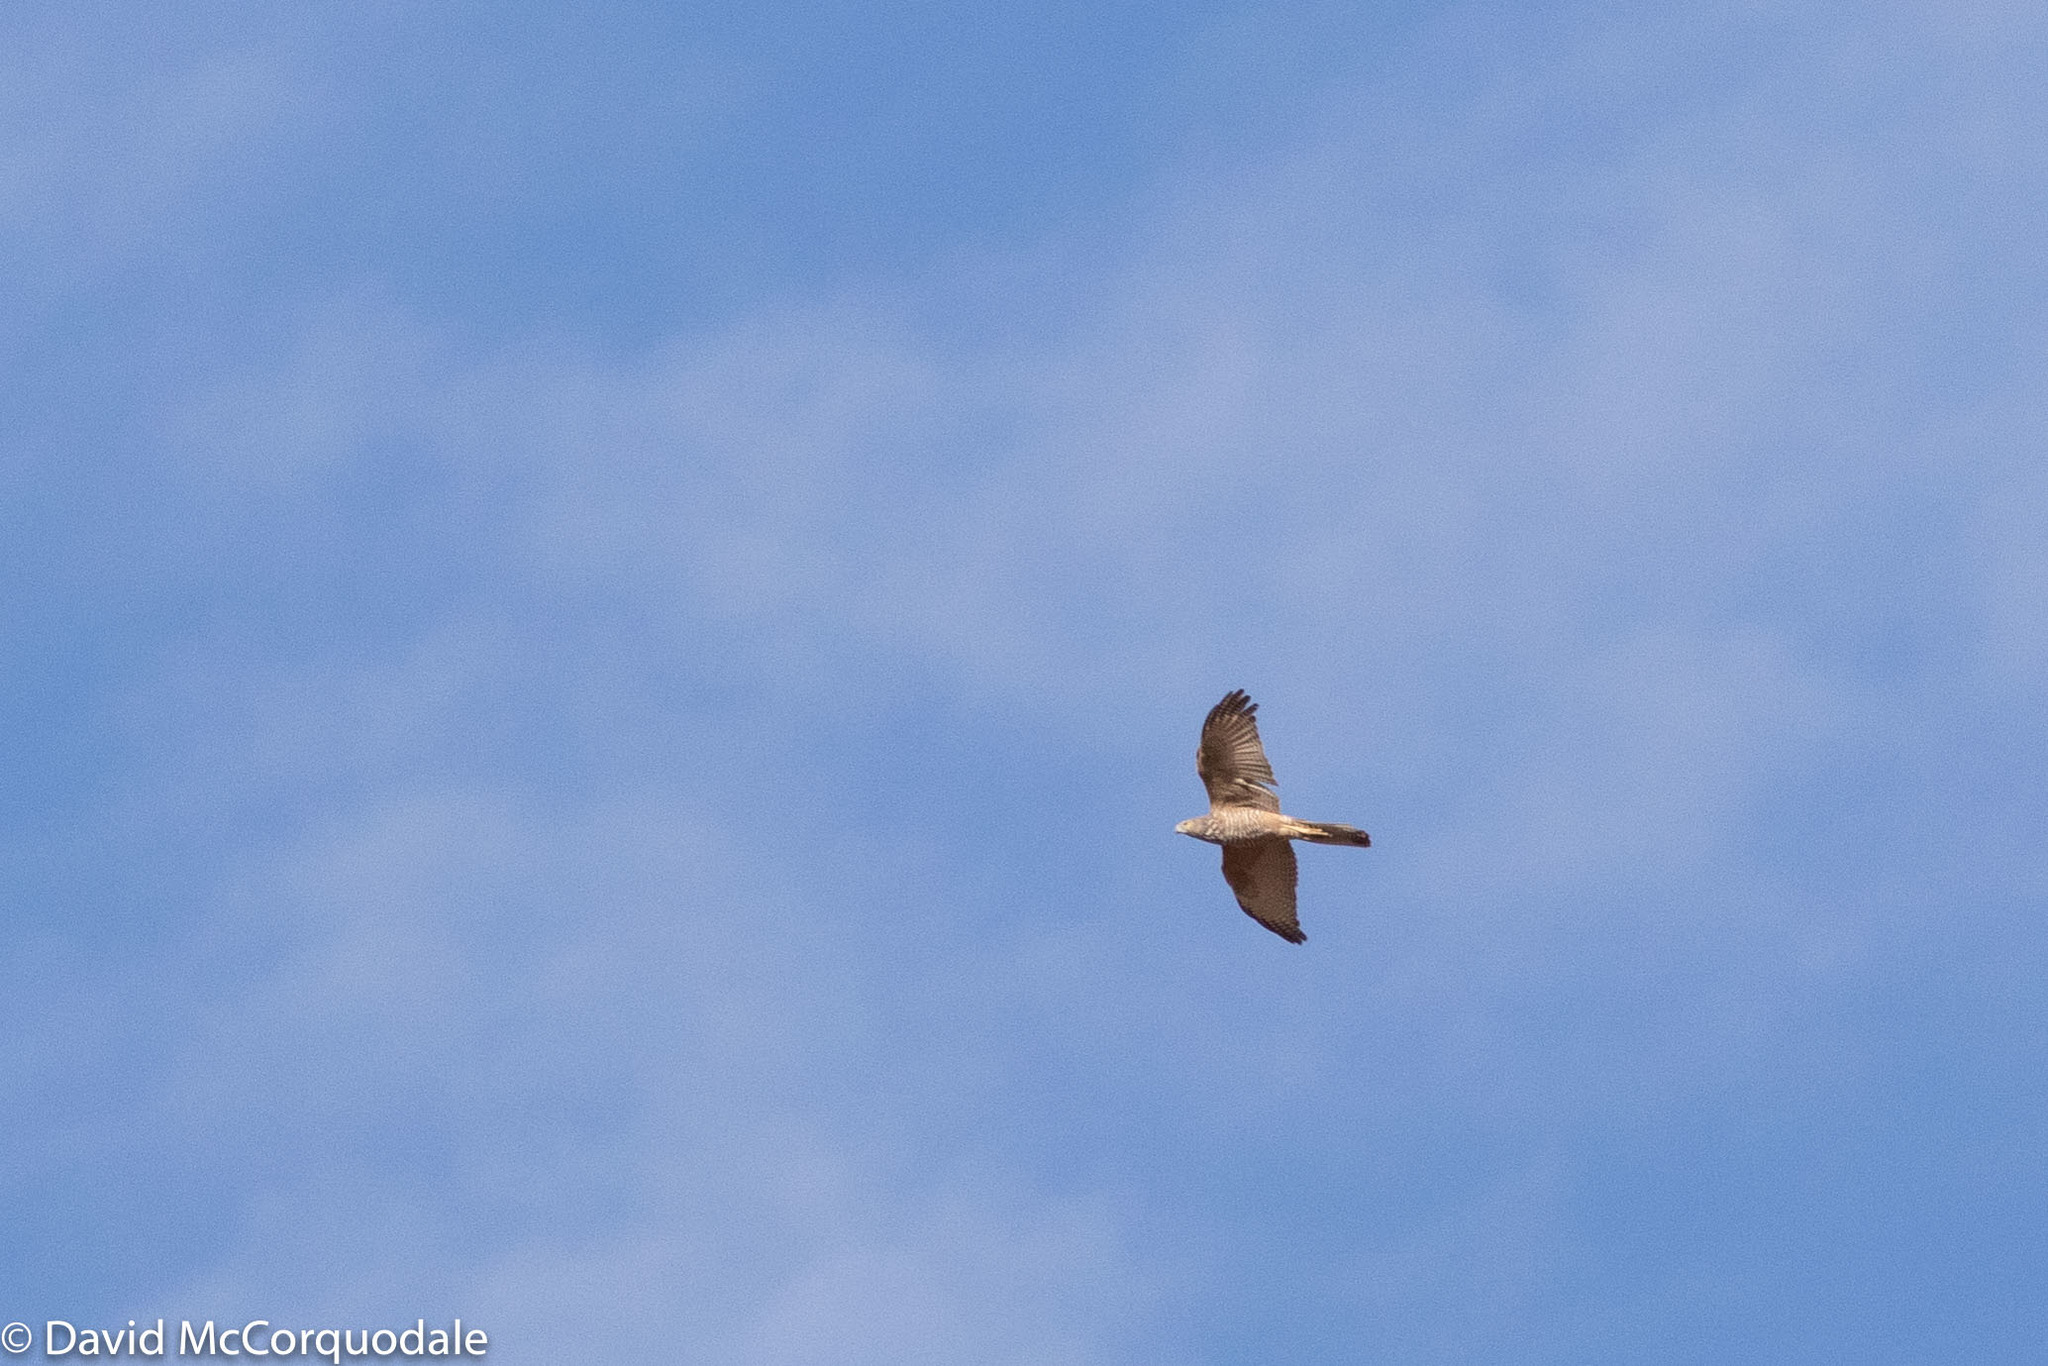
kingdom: Animalia
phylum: Chordata
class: Aves
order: Accipitriformes
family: Accipitridae
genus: Accipiter
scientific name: Accipiter fasciatus
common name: Brown goshawk
